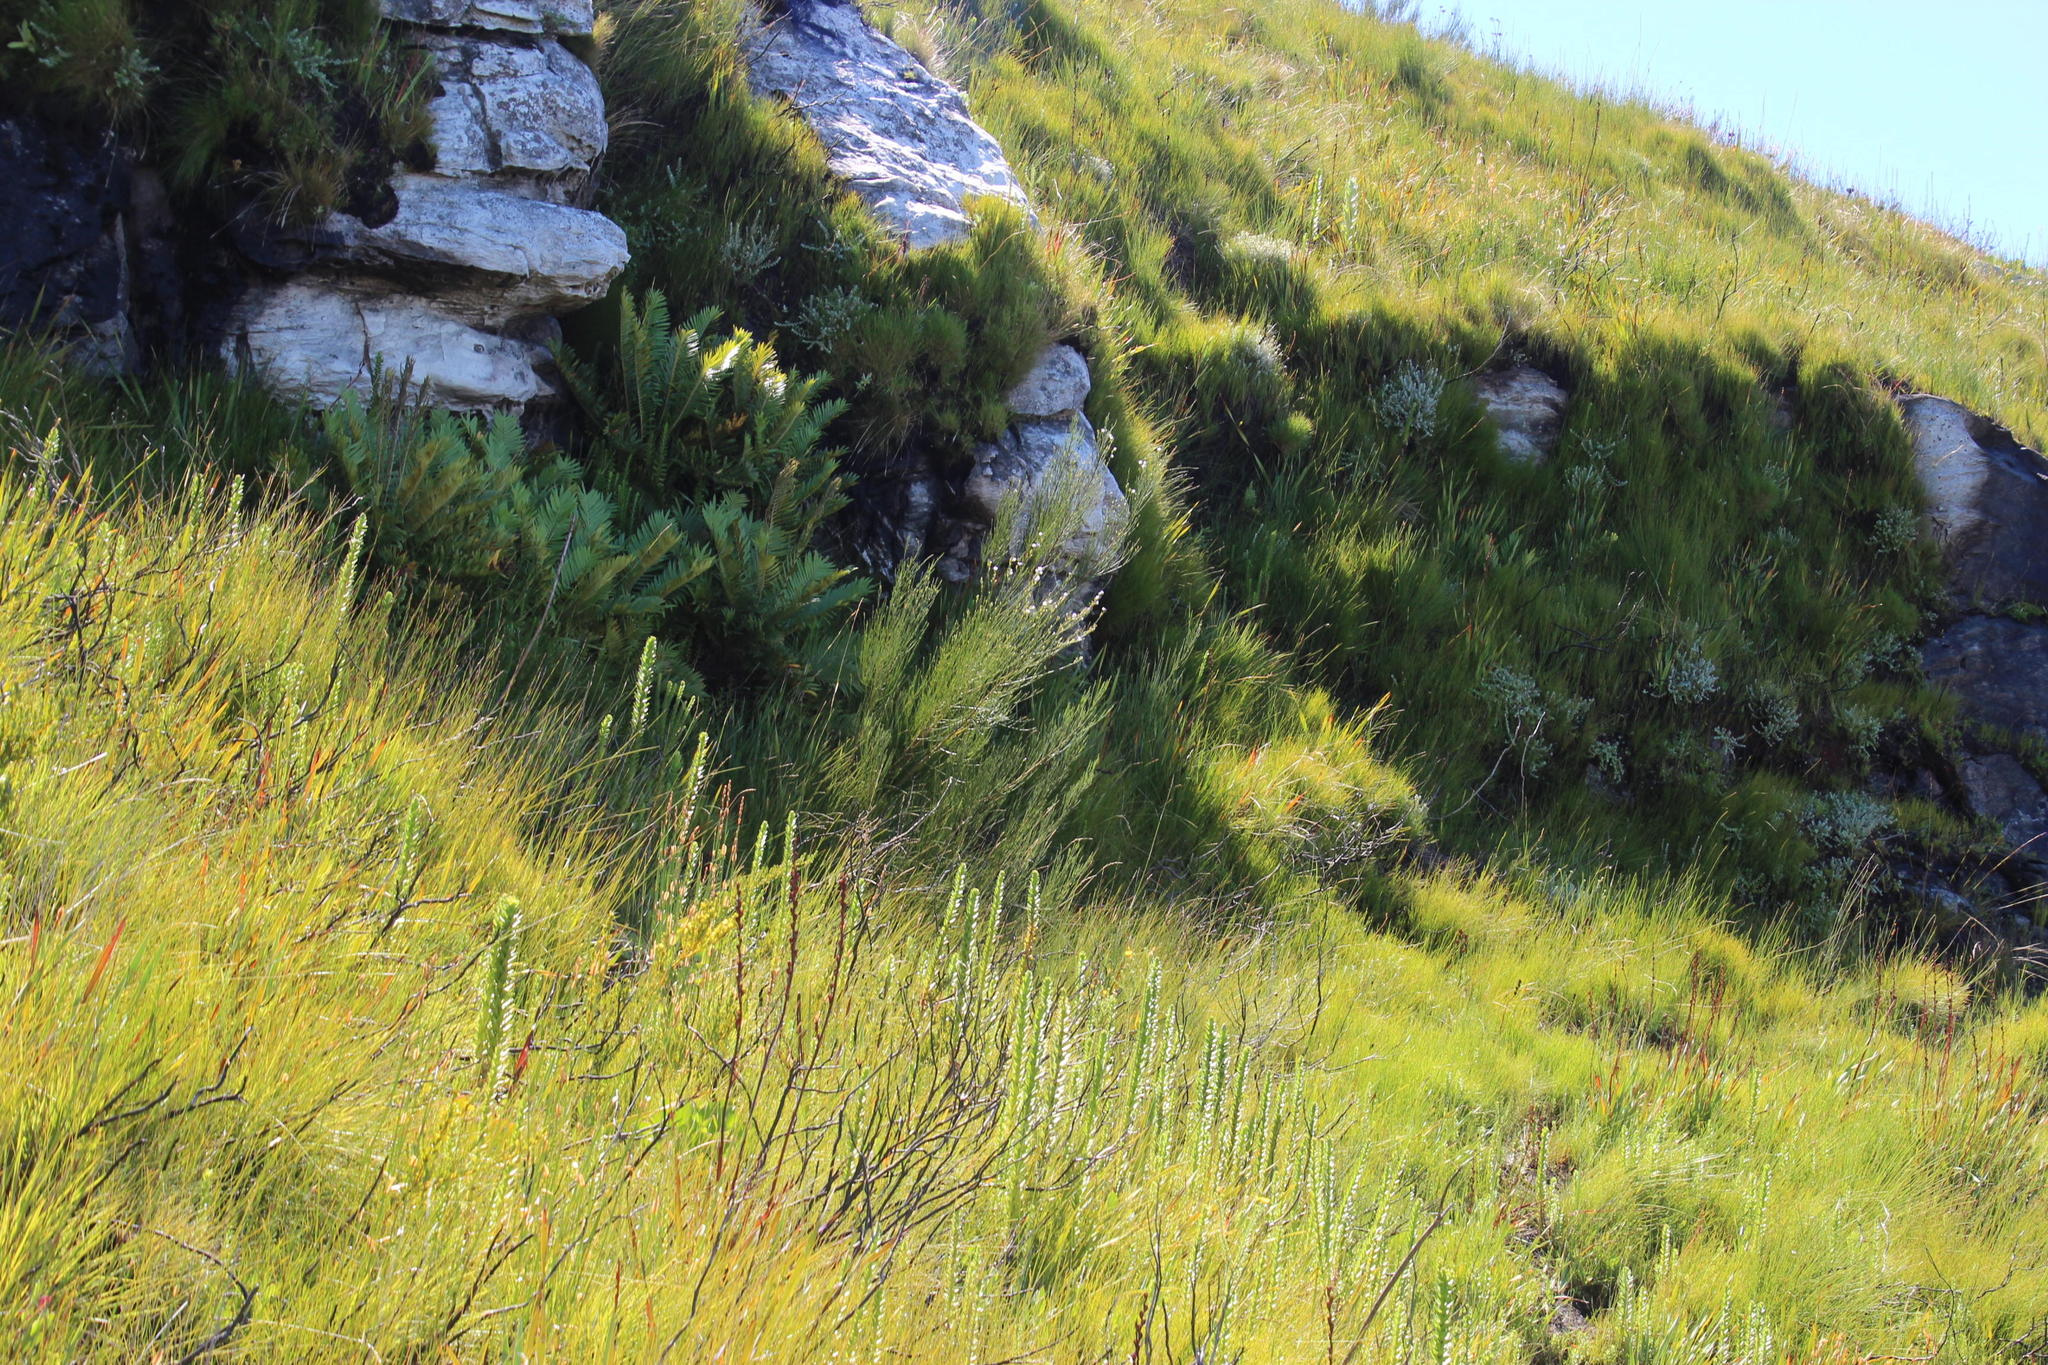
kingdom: Plantae
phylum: Tracheophyta
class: Magnoliopsida
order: Fabales
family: Fabaceae
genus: Psoralea
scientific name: Psoralea usitata
